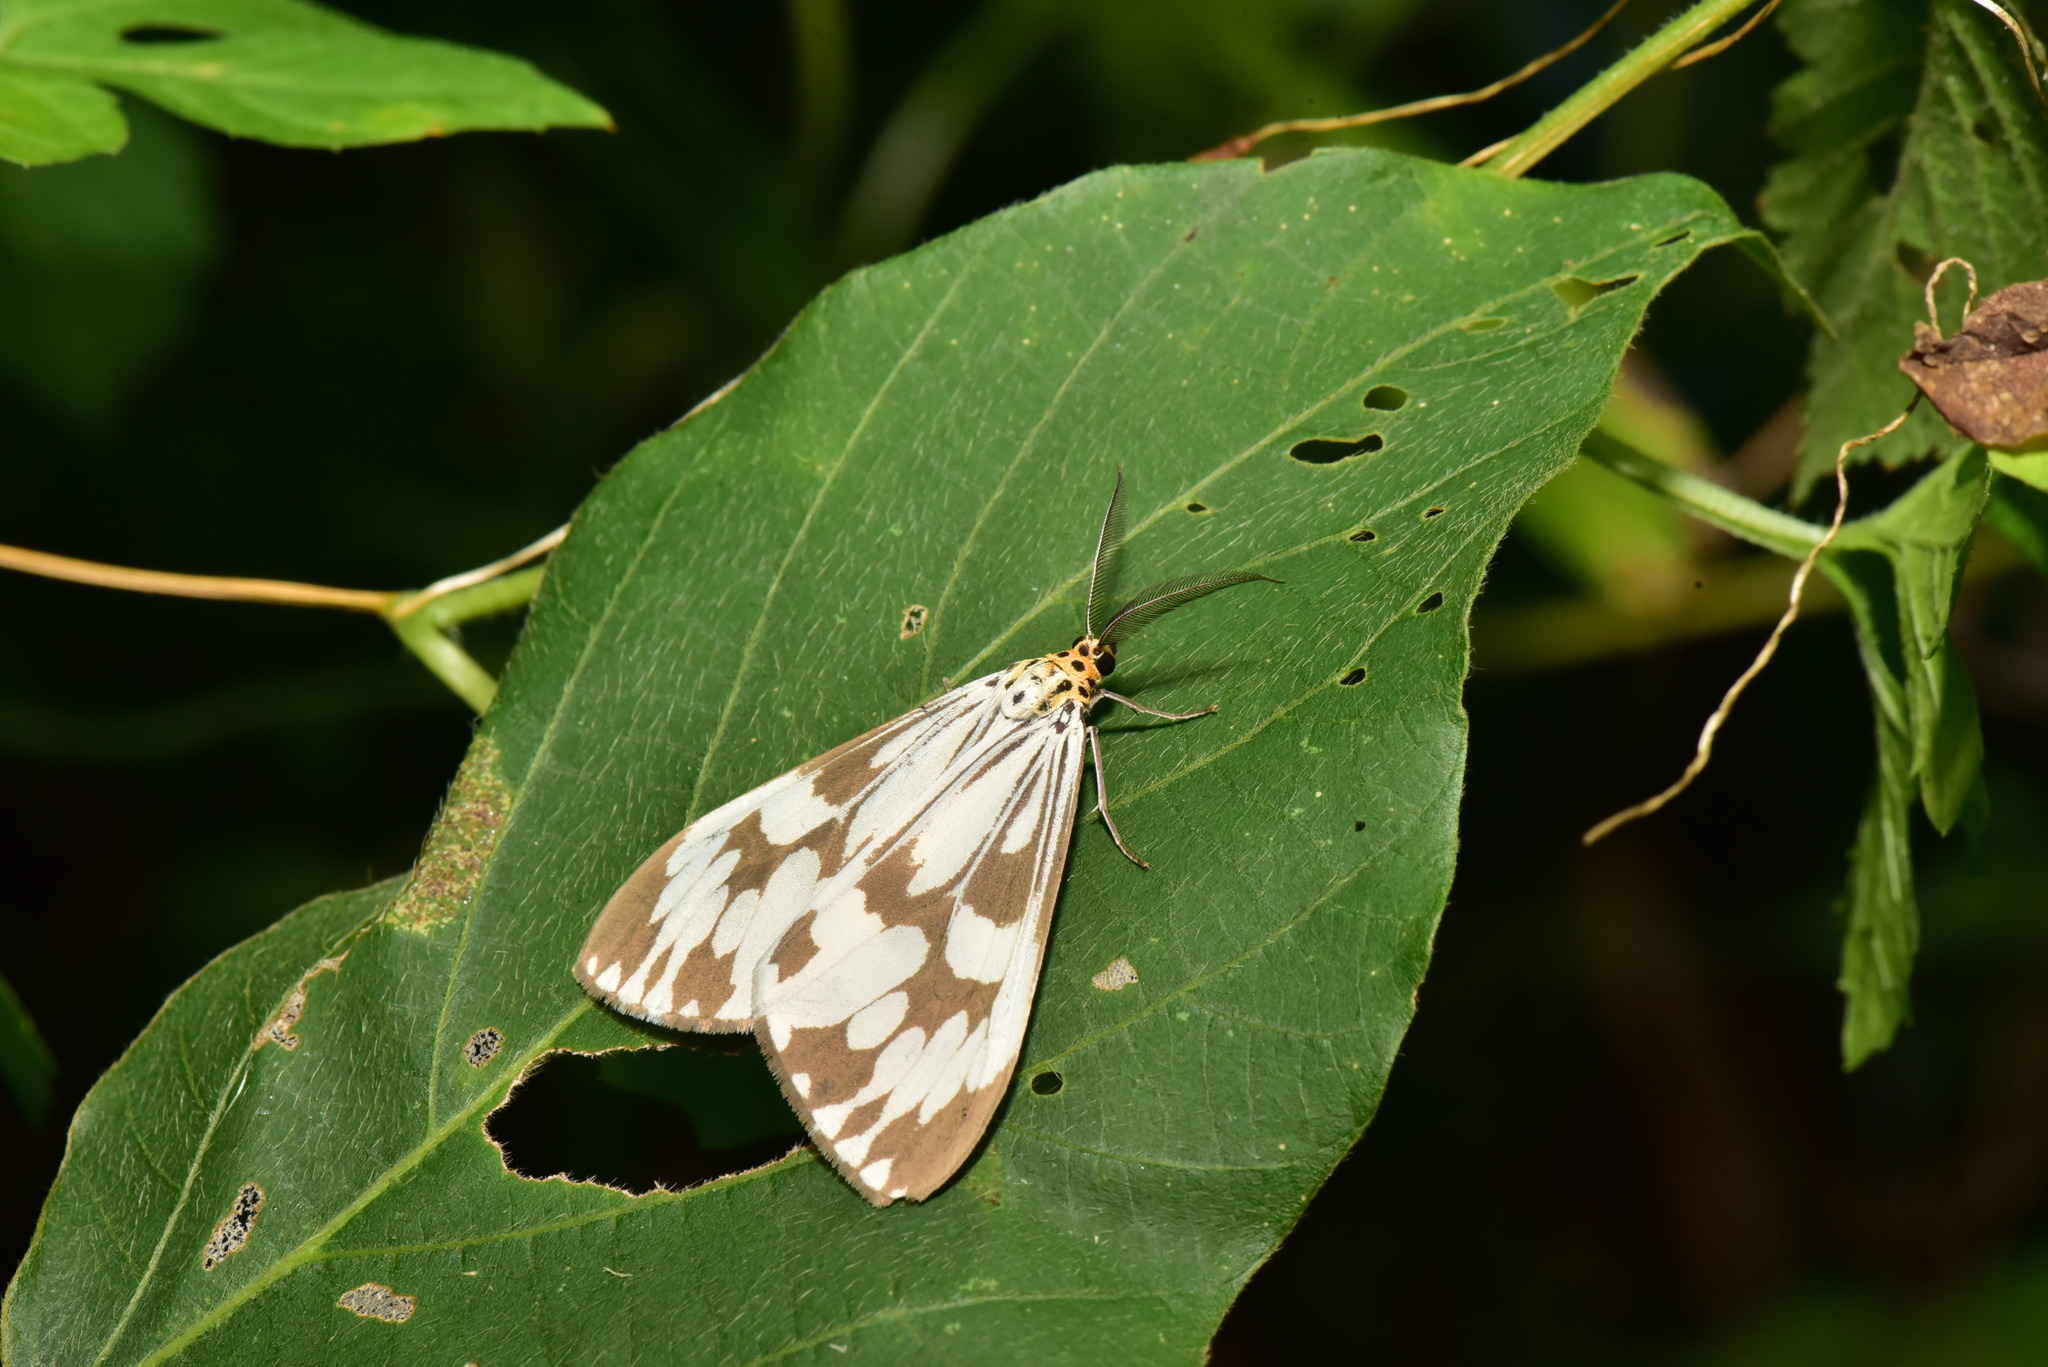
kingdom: Animalia
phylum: Arthropoda
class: Insecta
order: Lepidoptera
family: Erebidae
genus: Nyctemera
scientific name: Nyctemera adversata
